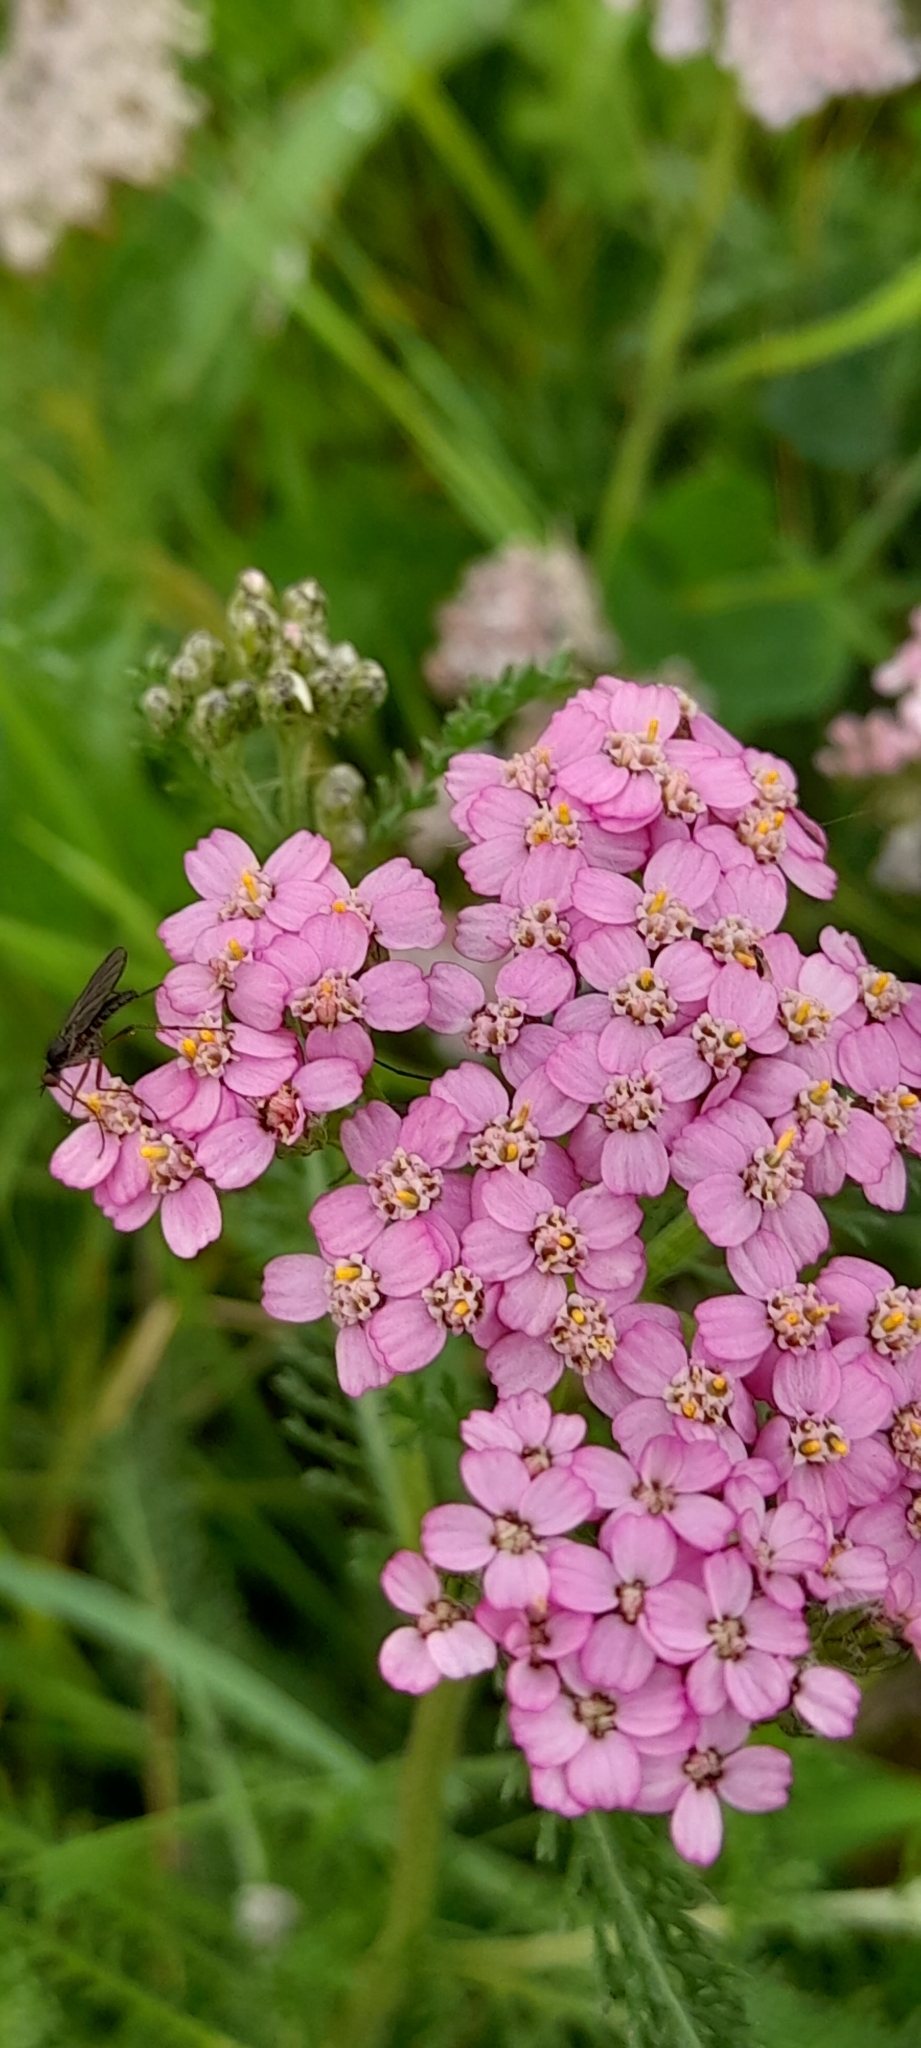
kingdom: Plantae
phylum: Tracheophyta
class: Magnoliopsida
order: Asterales
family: Asteraceae
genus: Achillea
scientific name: Achillea millefolium
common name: Yarrow
